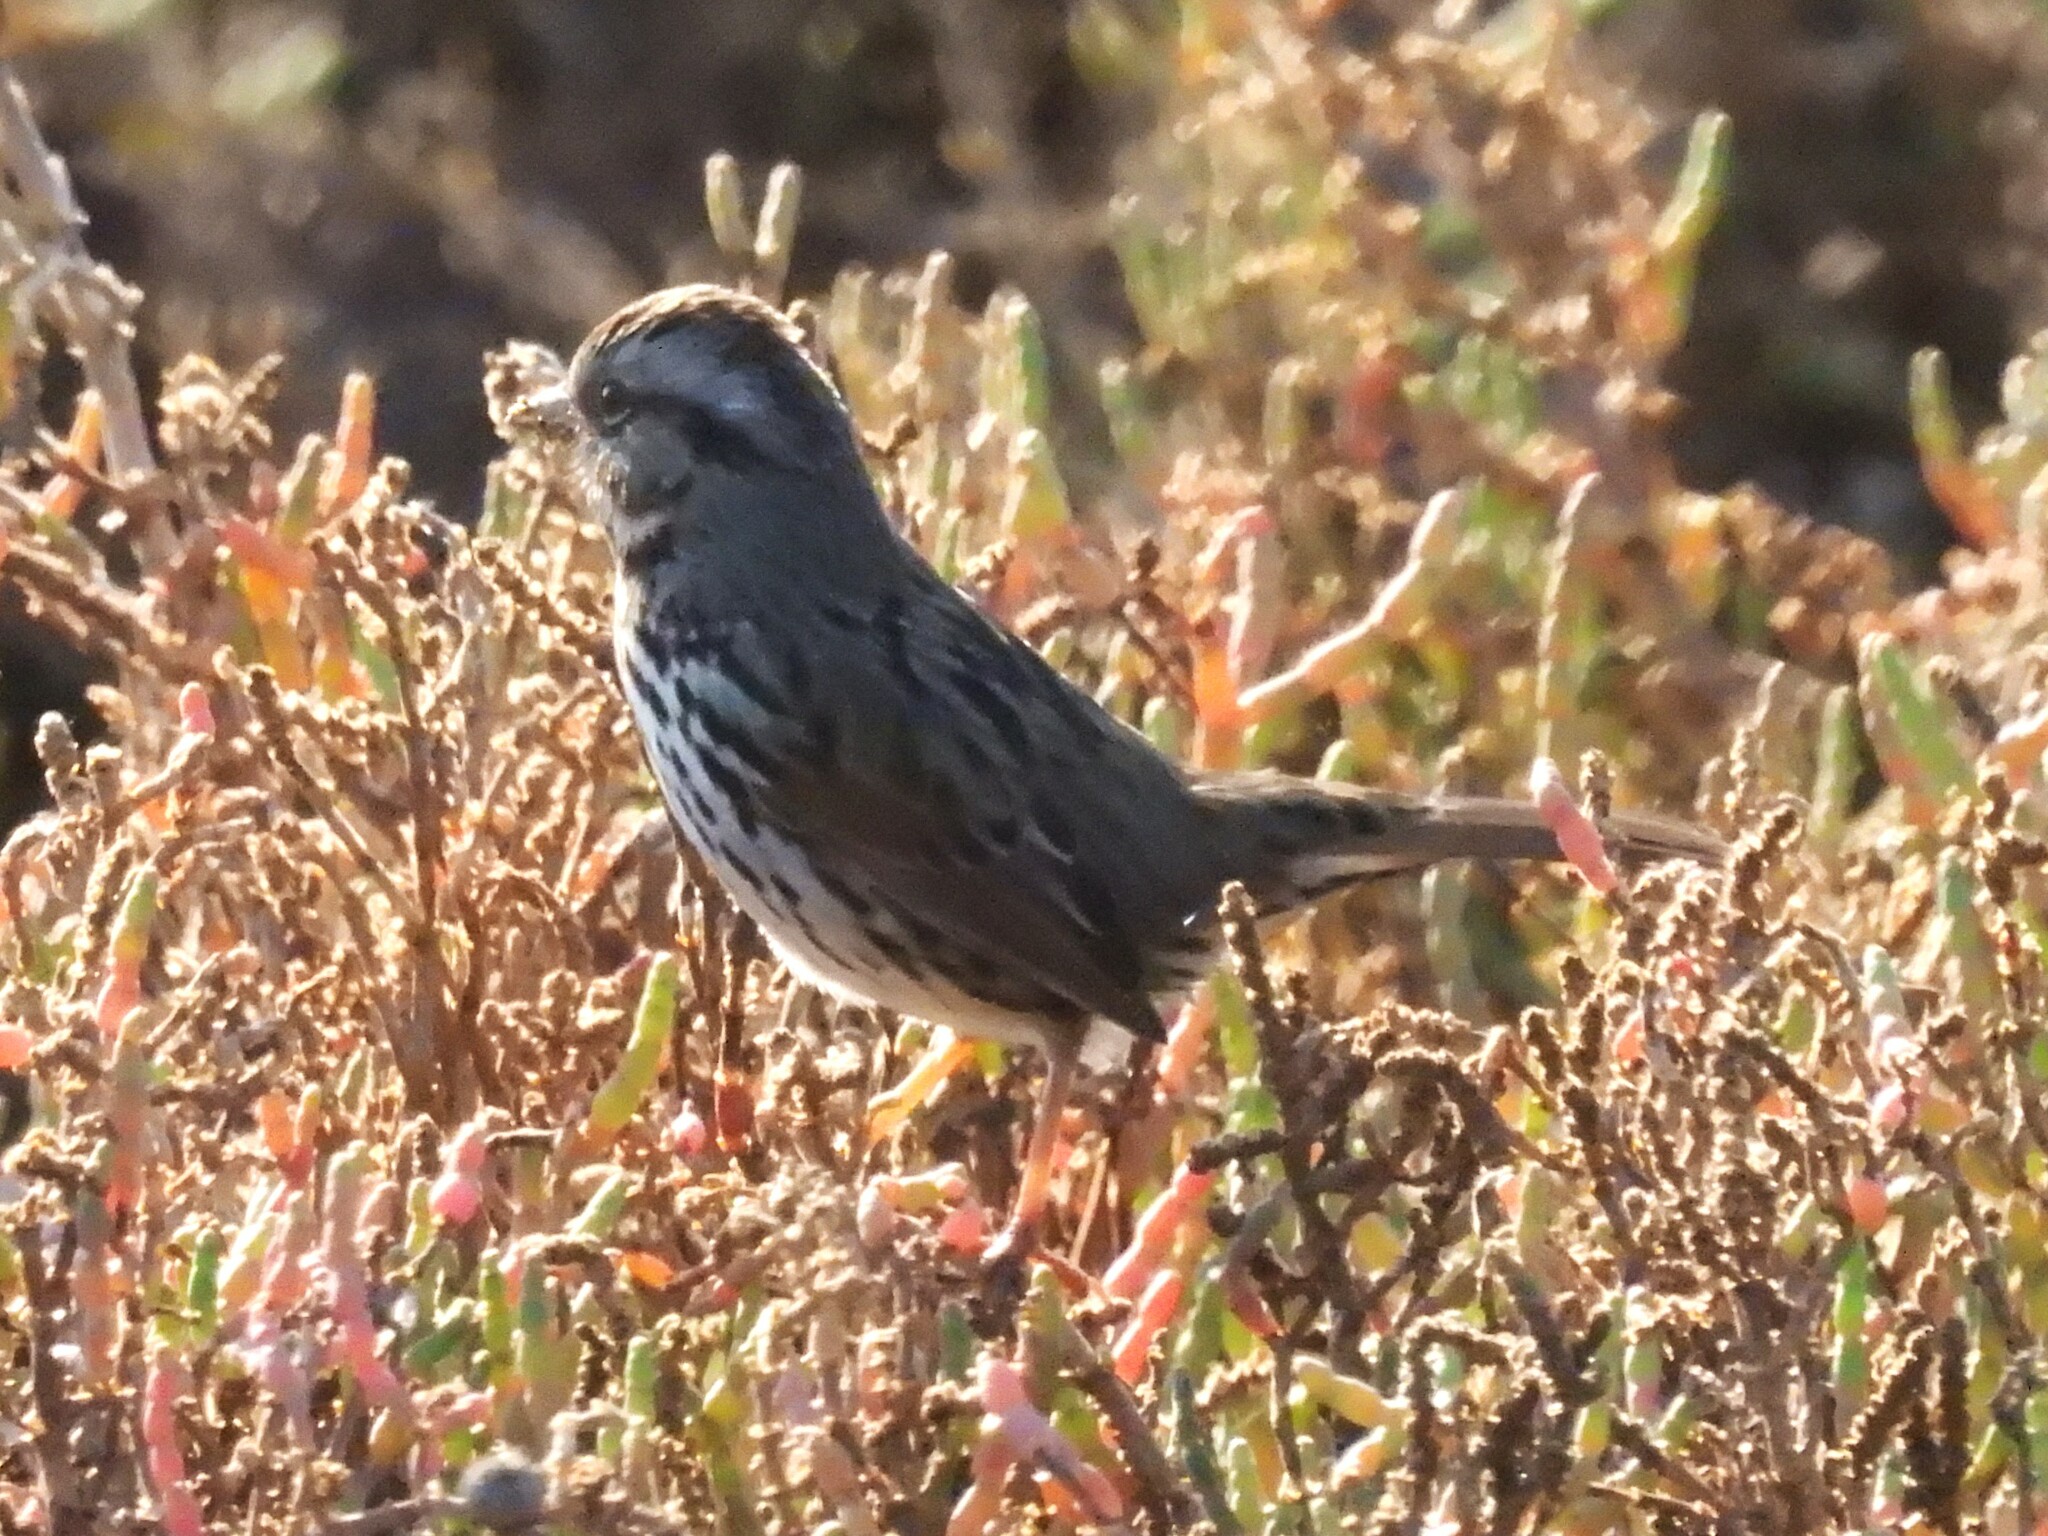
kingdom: Animalia
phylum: Chordata
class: Aves
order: Passeriformes
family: Passerellidae
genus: Melospiza
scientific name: Melospiza melodia
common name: Song sparrow
